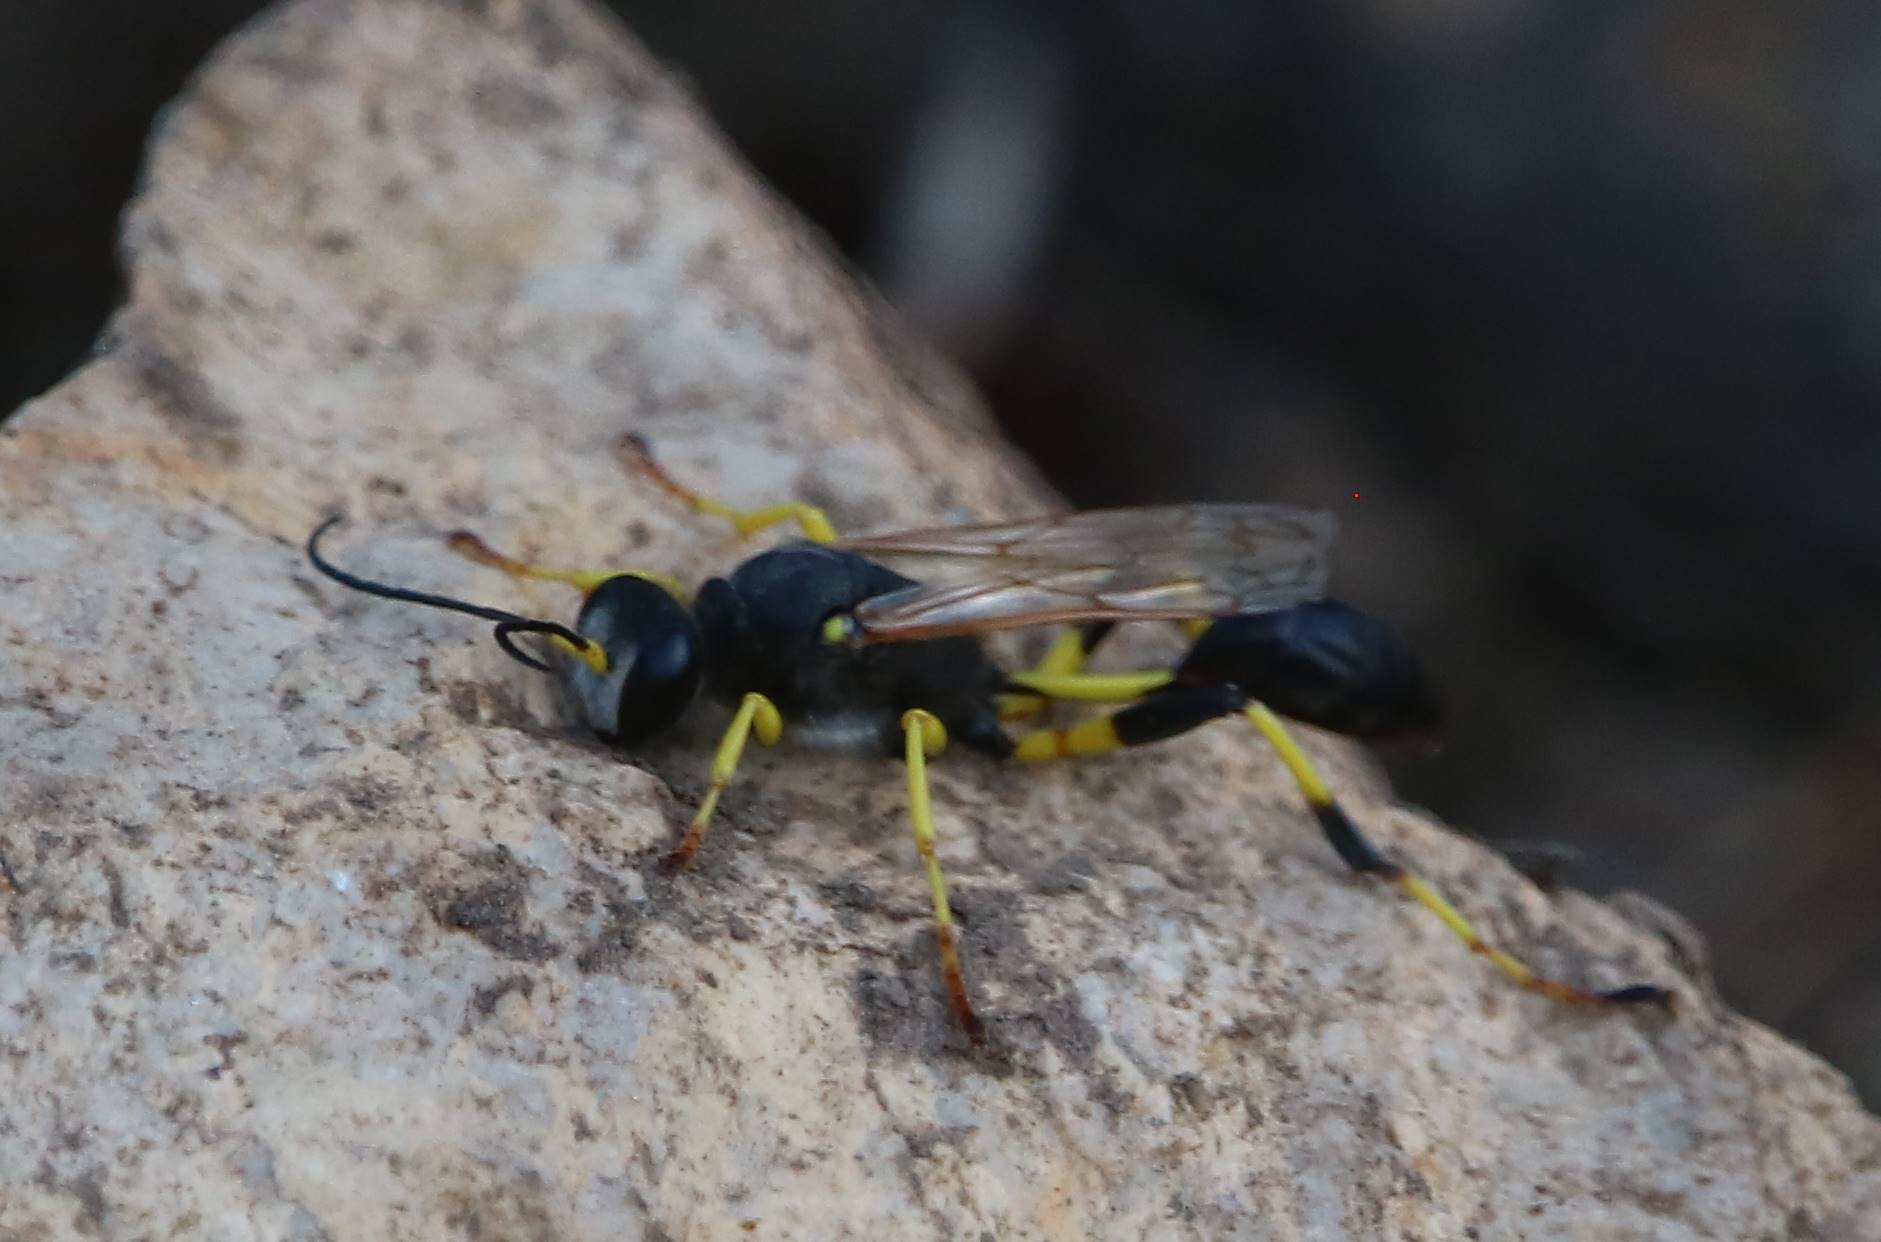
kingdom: Animalia
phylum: Arthropoda
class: Insecta
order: Hymenoptera
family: Sphecidae
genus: Sceliphron
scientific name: Sceliphron destillatorium
